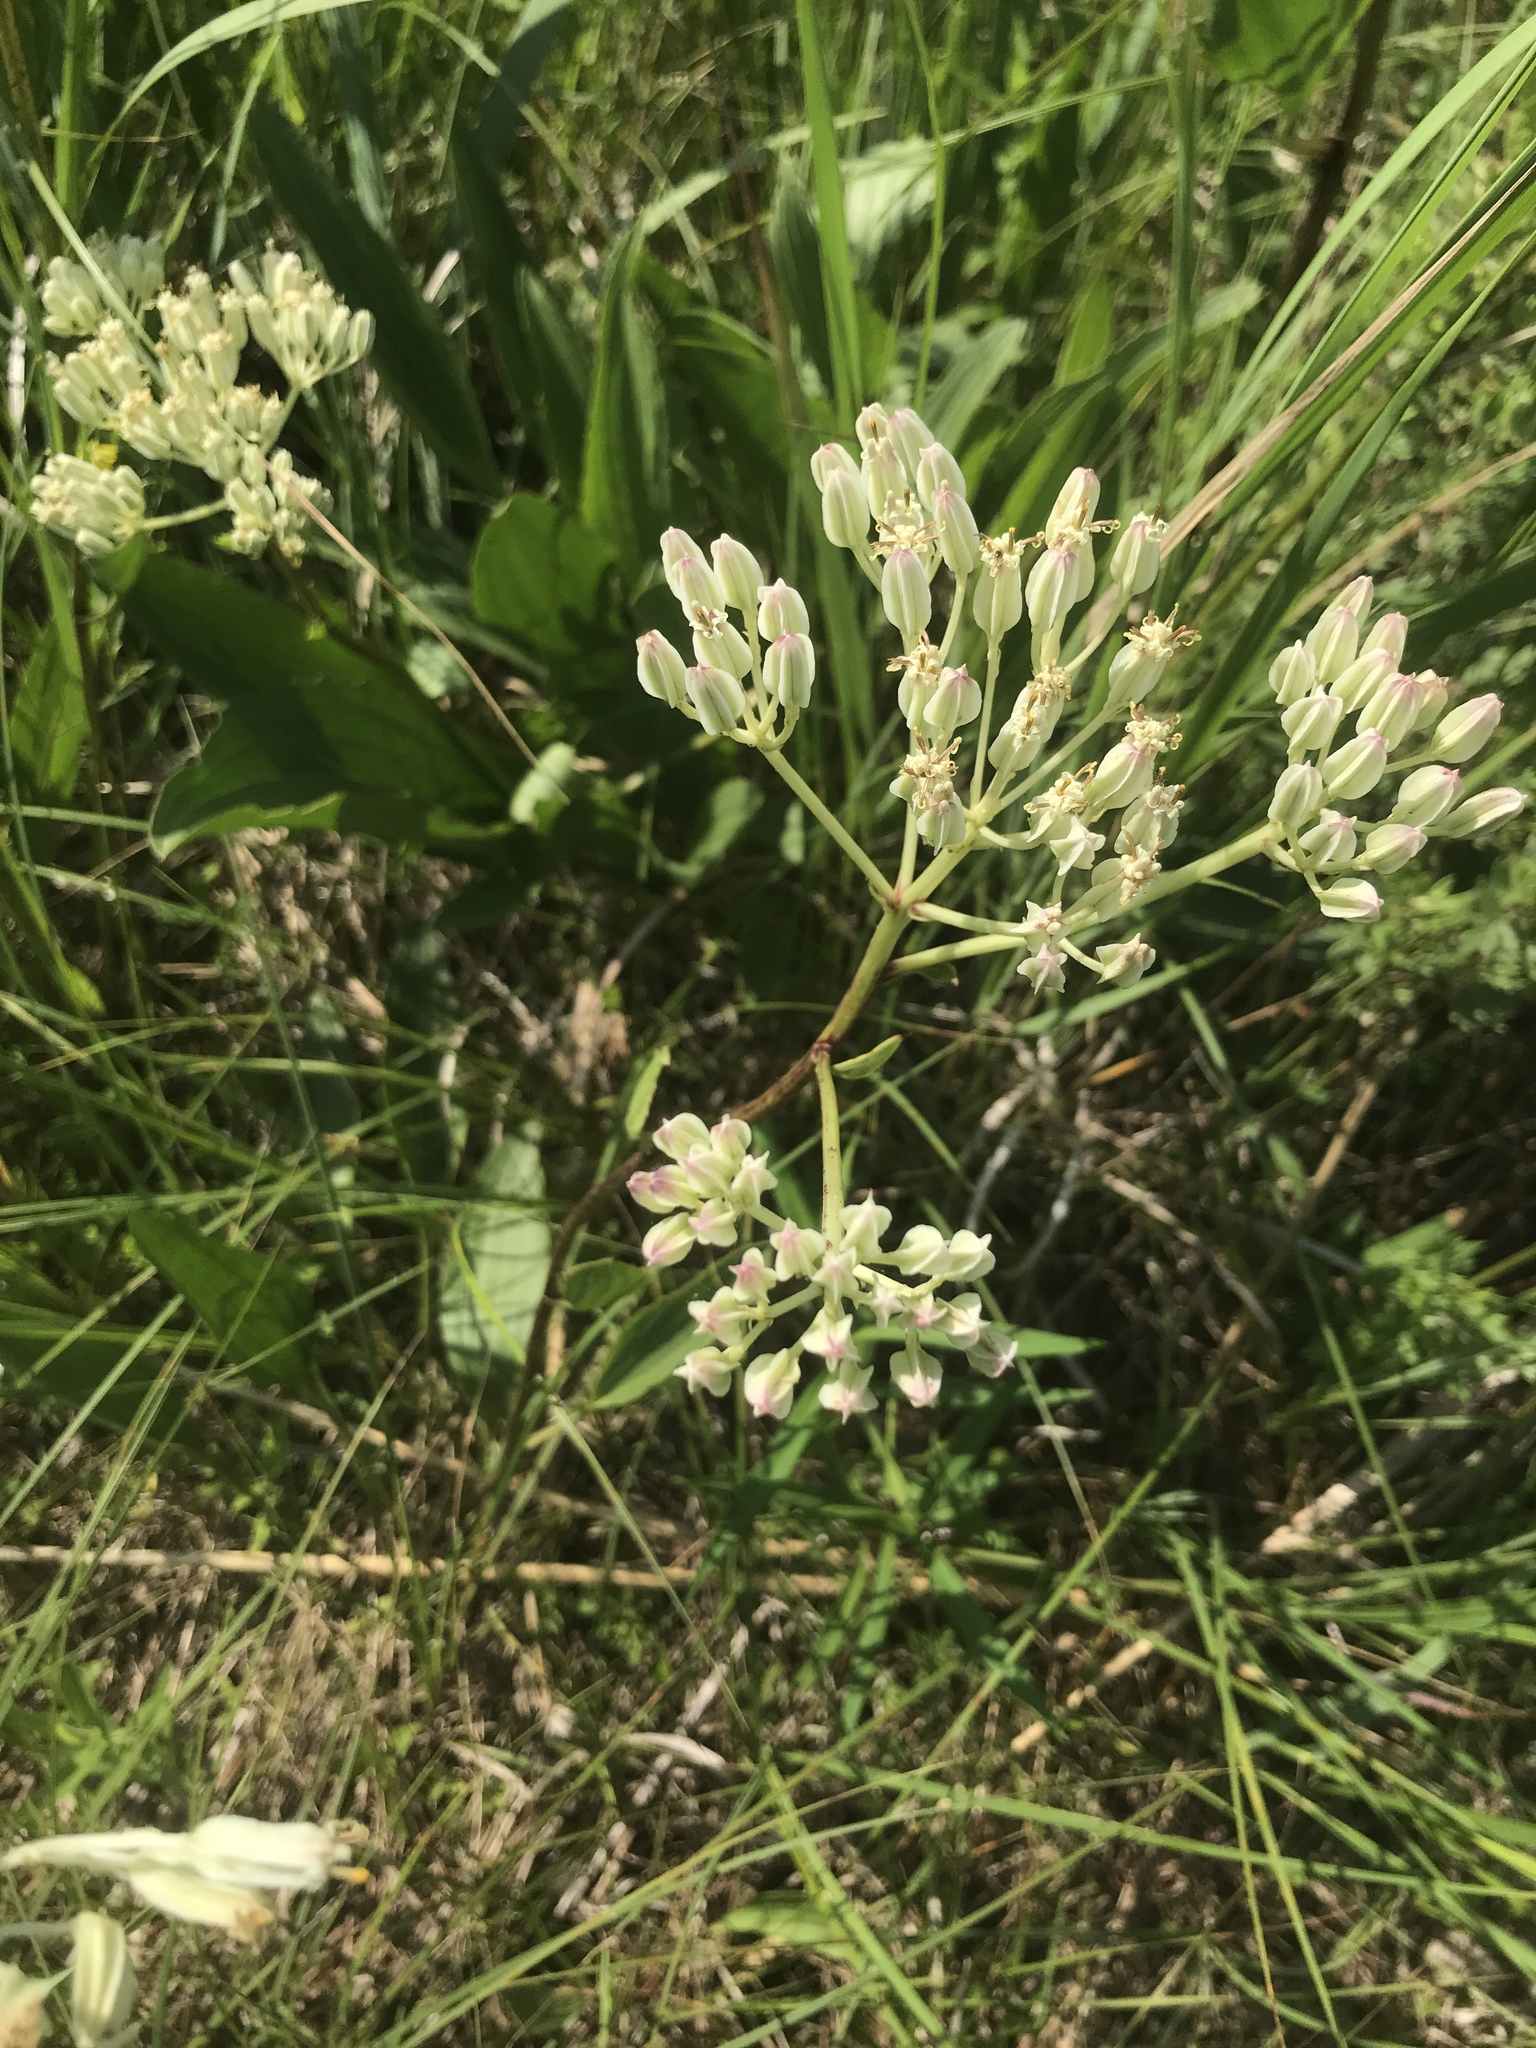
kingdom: Plantae
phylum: Tracheophyta
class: Magnoliopsida
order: Asterales
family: Asteraceae
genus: Arnoglossum
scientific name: Arnoglossum plantagineum
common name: Groove-stemmed indian-plantain
